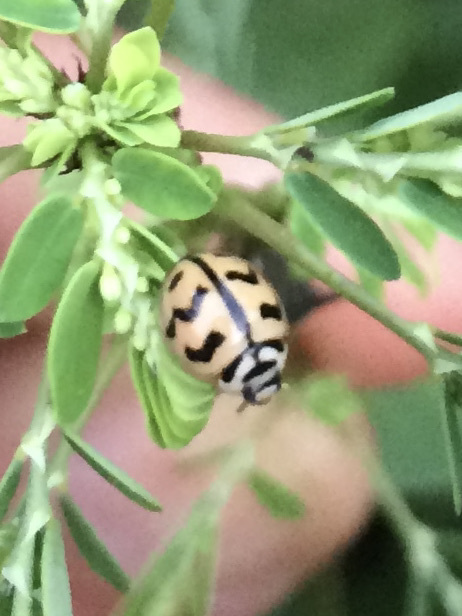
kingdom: Animalia
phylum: Arthropoda
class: Insecta
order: Coleoptera
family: Coccinellidae
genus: Cheilomenes
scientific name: Cheilomenes sexmaculata
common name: Ladybird beetle
